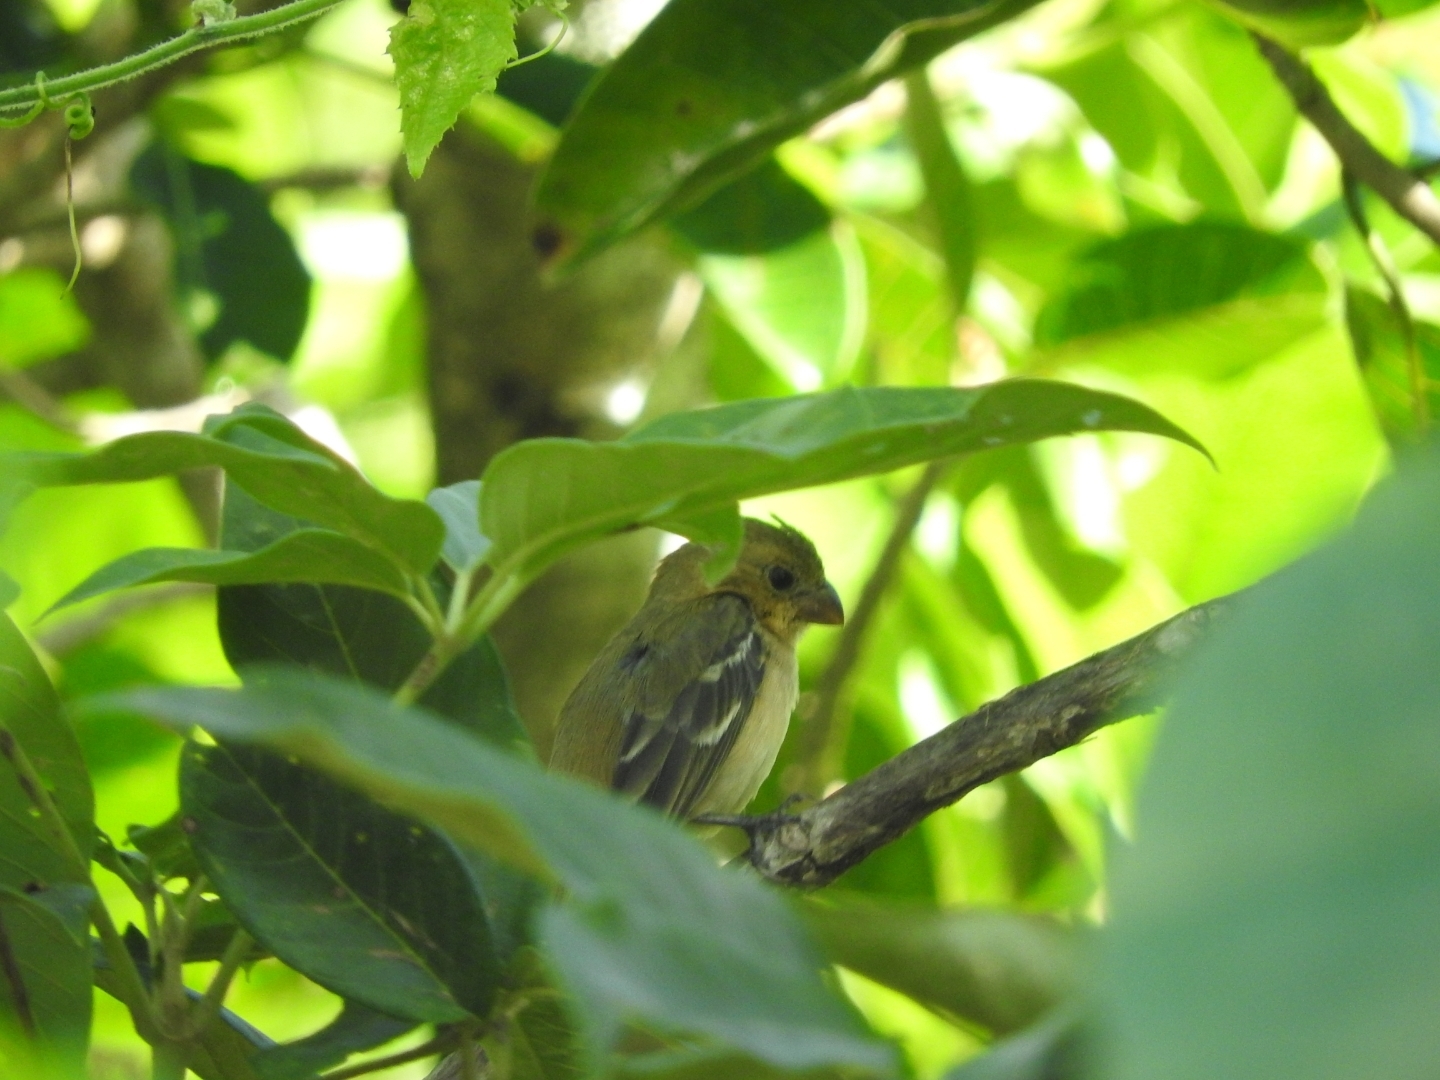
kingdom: Animalia
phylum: Chordata
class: Aves
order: Passeriformes
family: Thraupidae
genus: Sporophila
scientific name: Sporophila morelleti
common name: Morelet's seedeater
